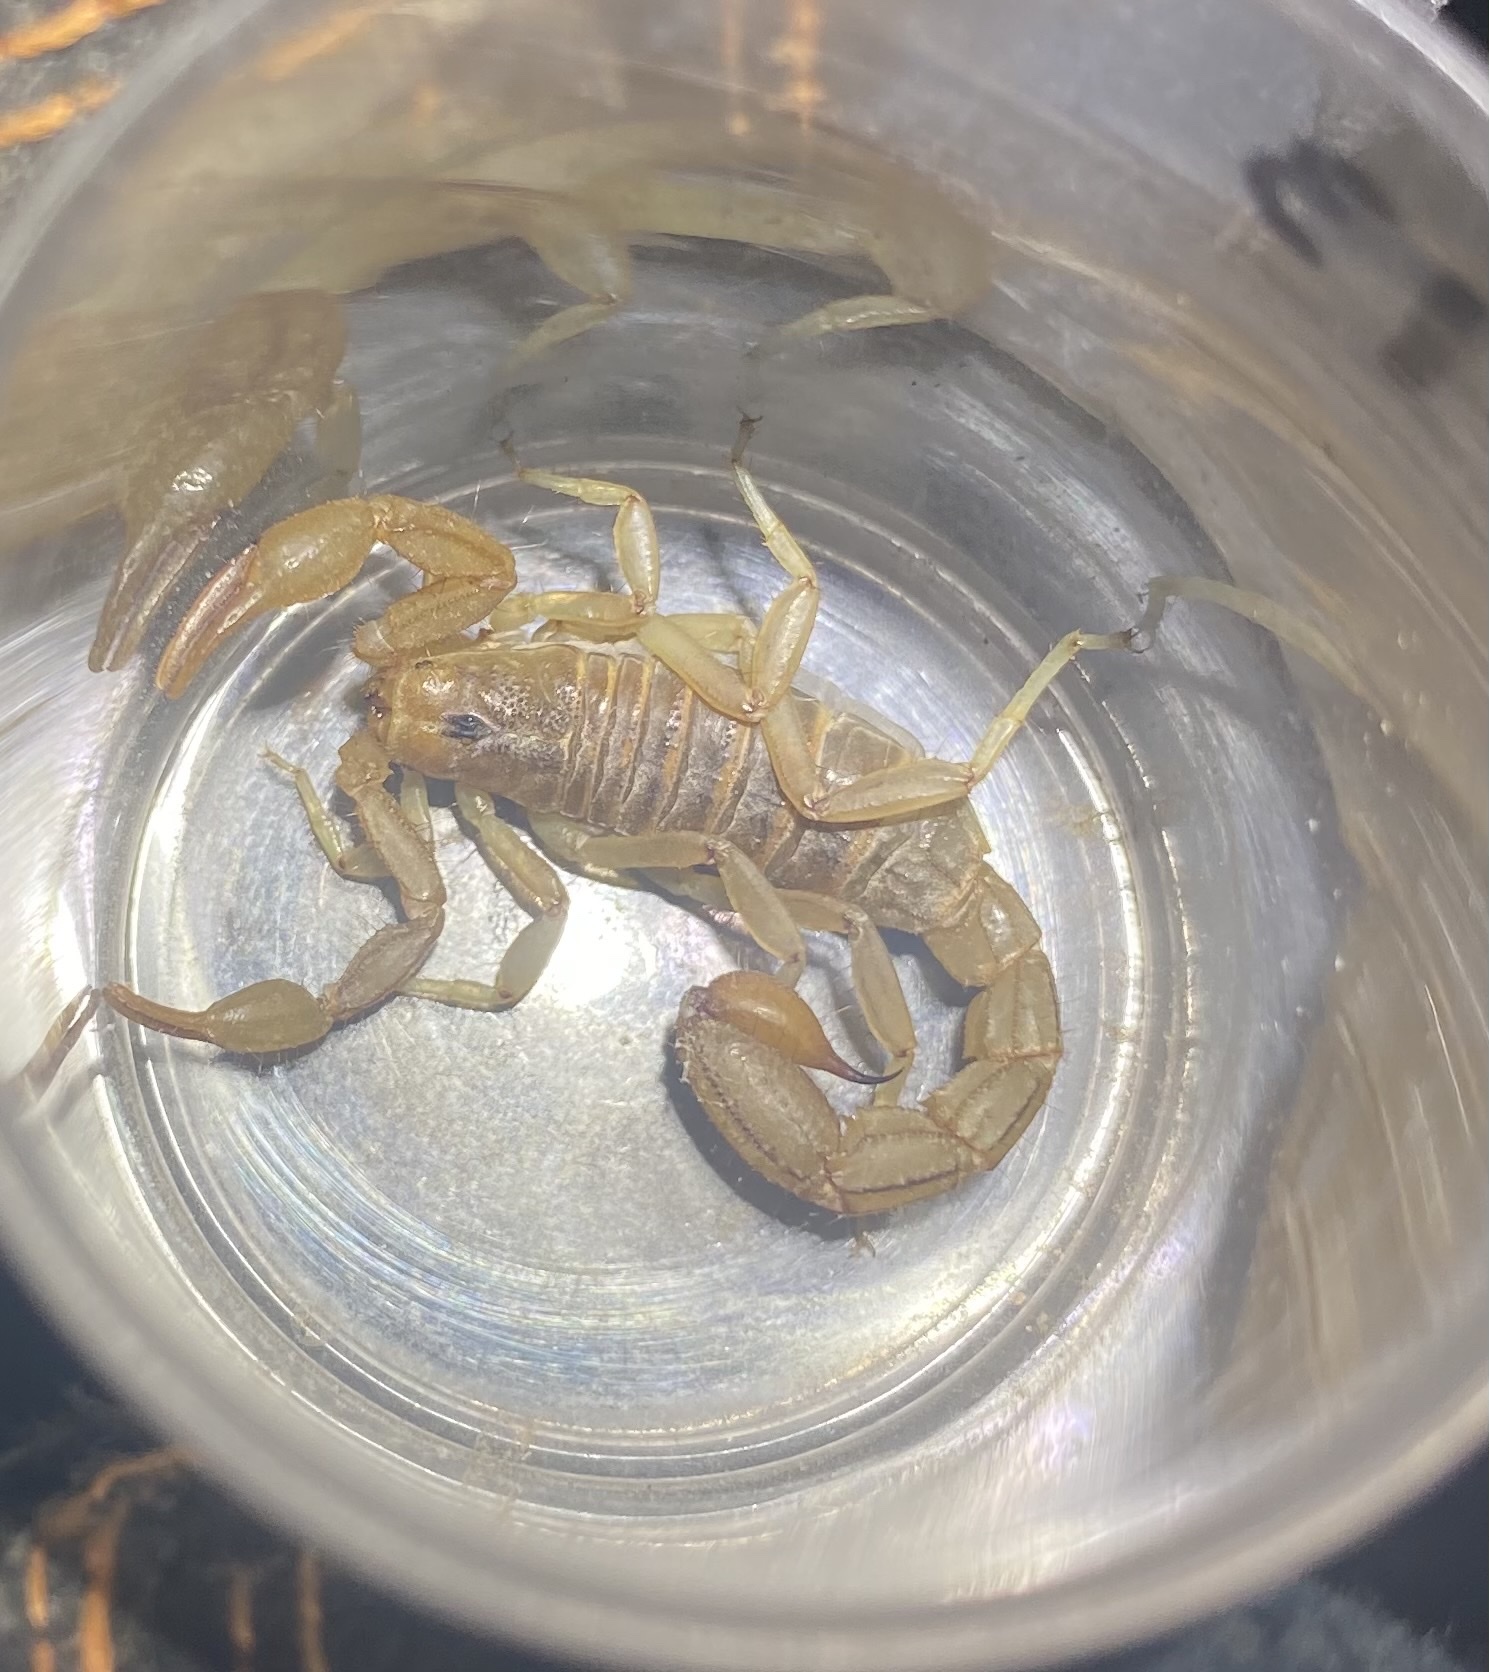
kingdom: Animalia
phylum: Arthropoda
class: Arachnida
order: Scorpiones
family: Vaejovidae
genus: Paravaejovis
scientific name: Paravaejovis spinigerus
